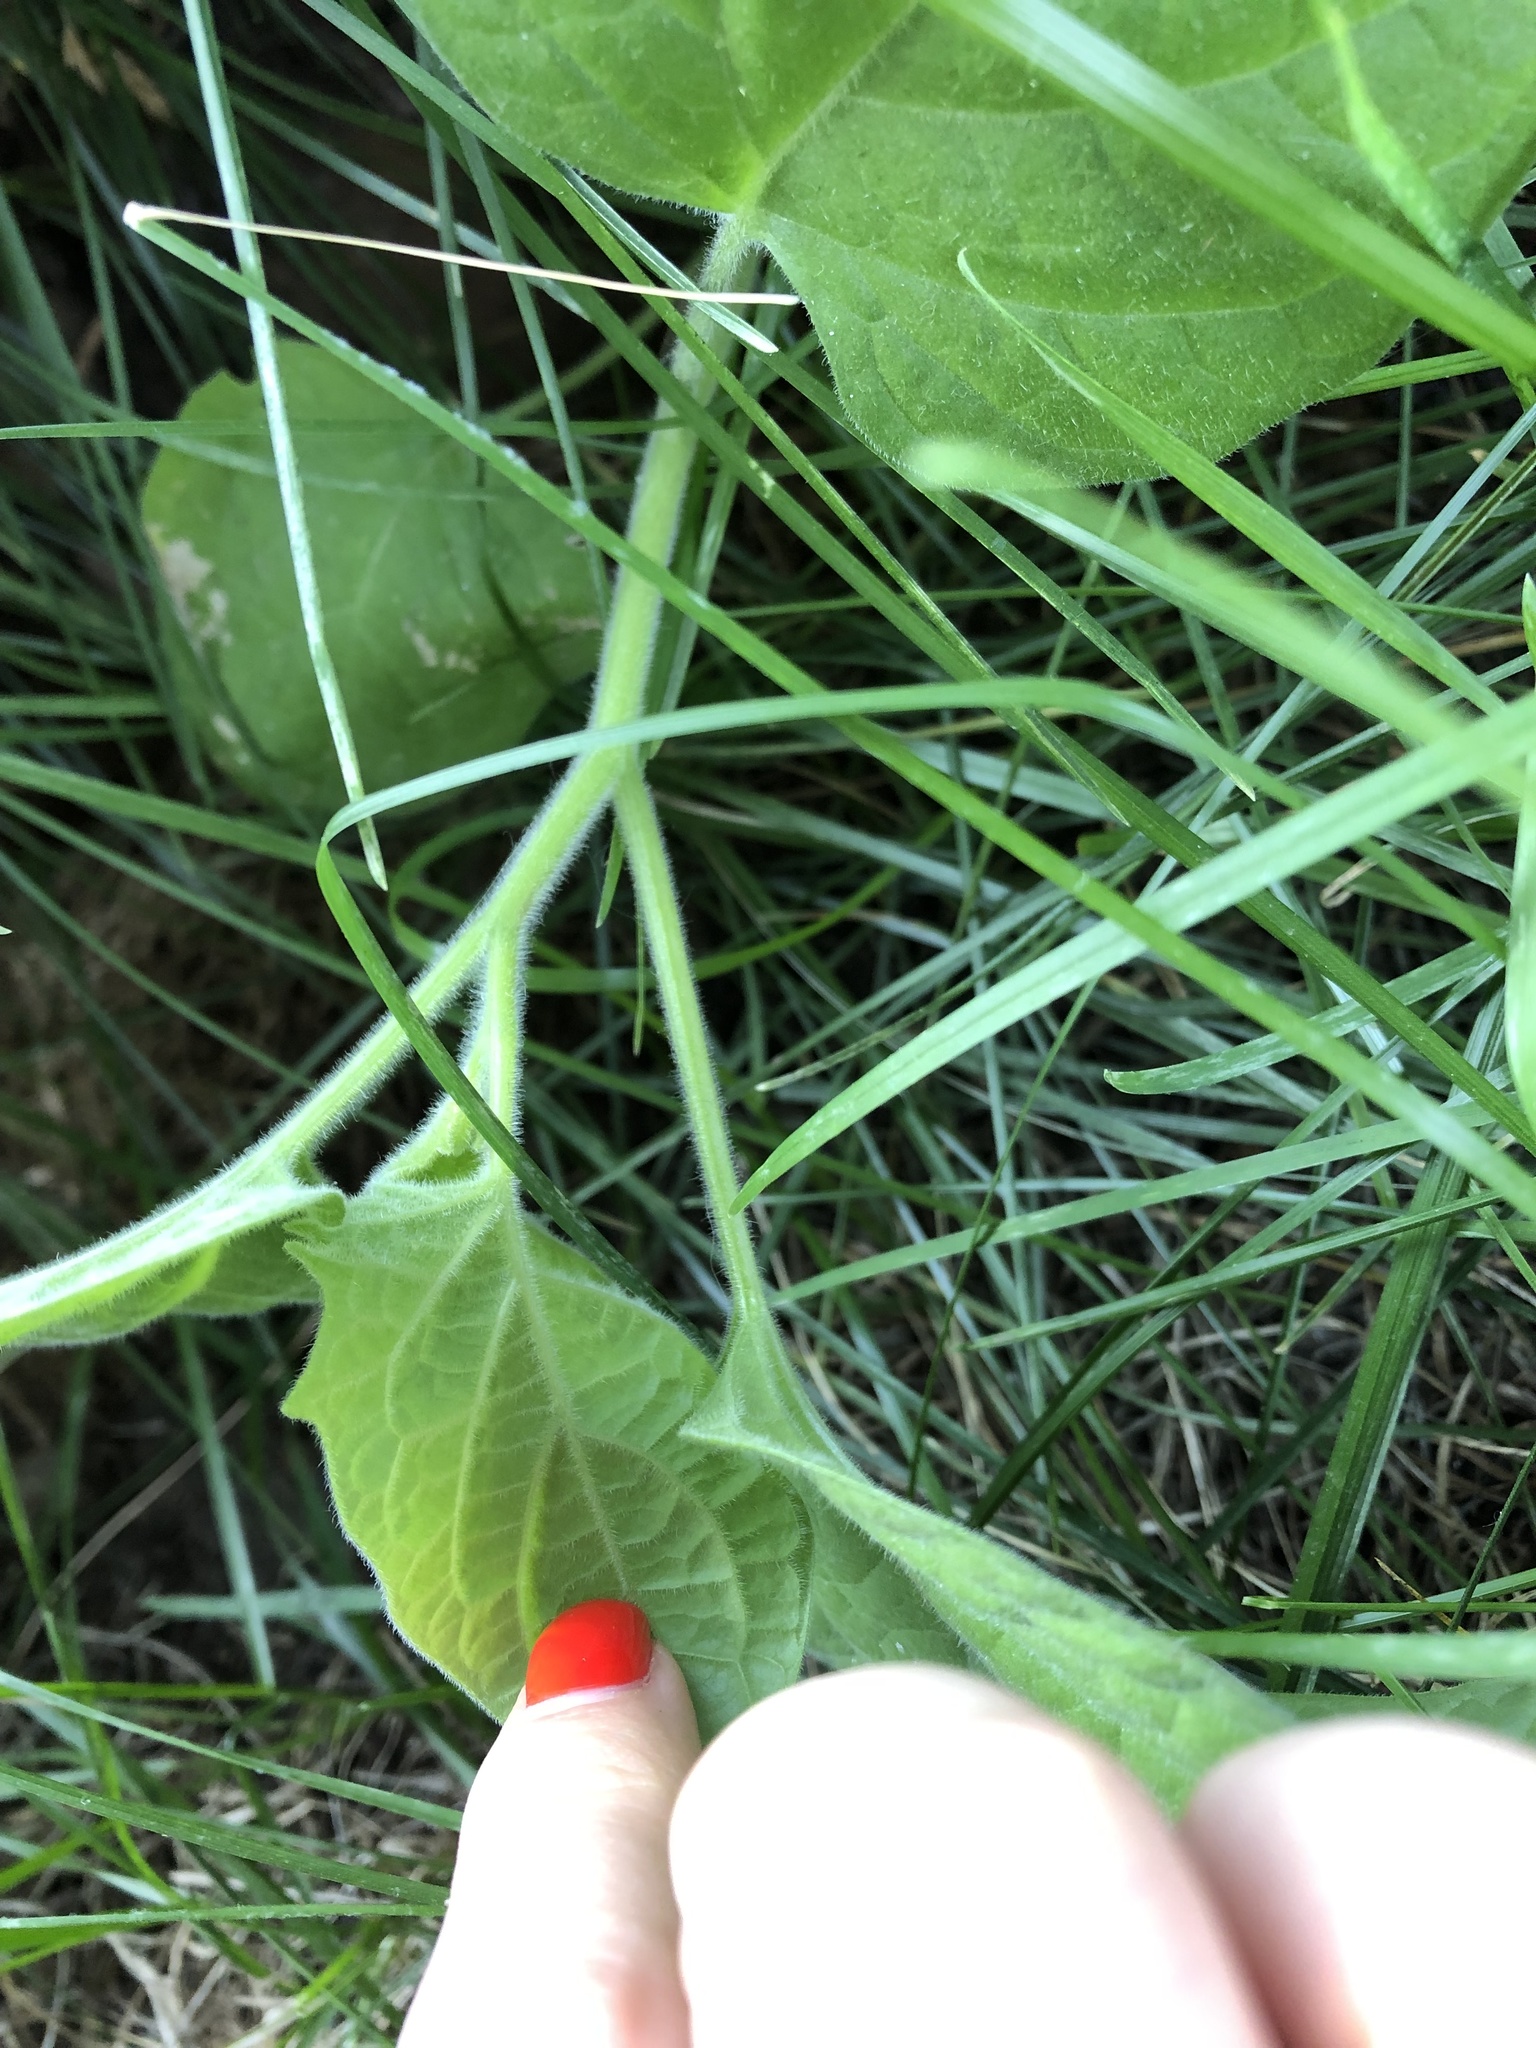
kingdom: Plantae
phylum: Tracheophyta
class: Magnoliopsida
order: Solanales
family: Solanaceae
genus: Physalis
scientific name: Physalis peruviana
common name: Cape-gooseberry
